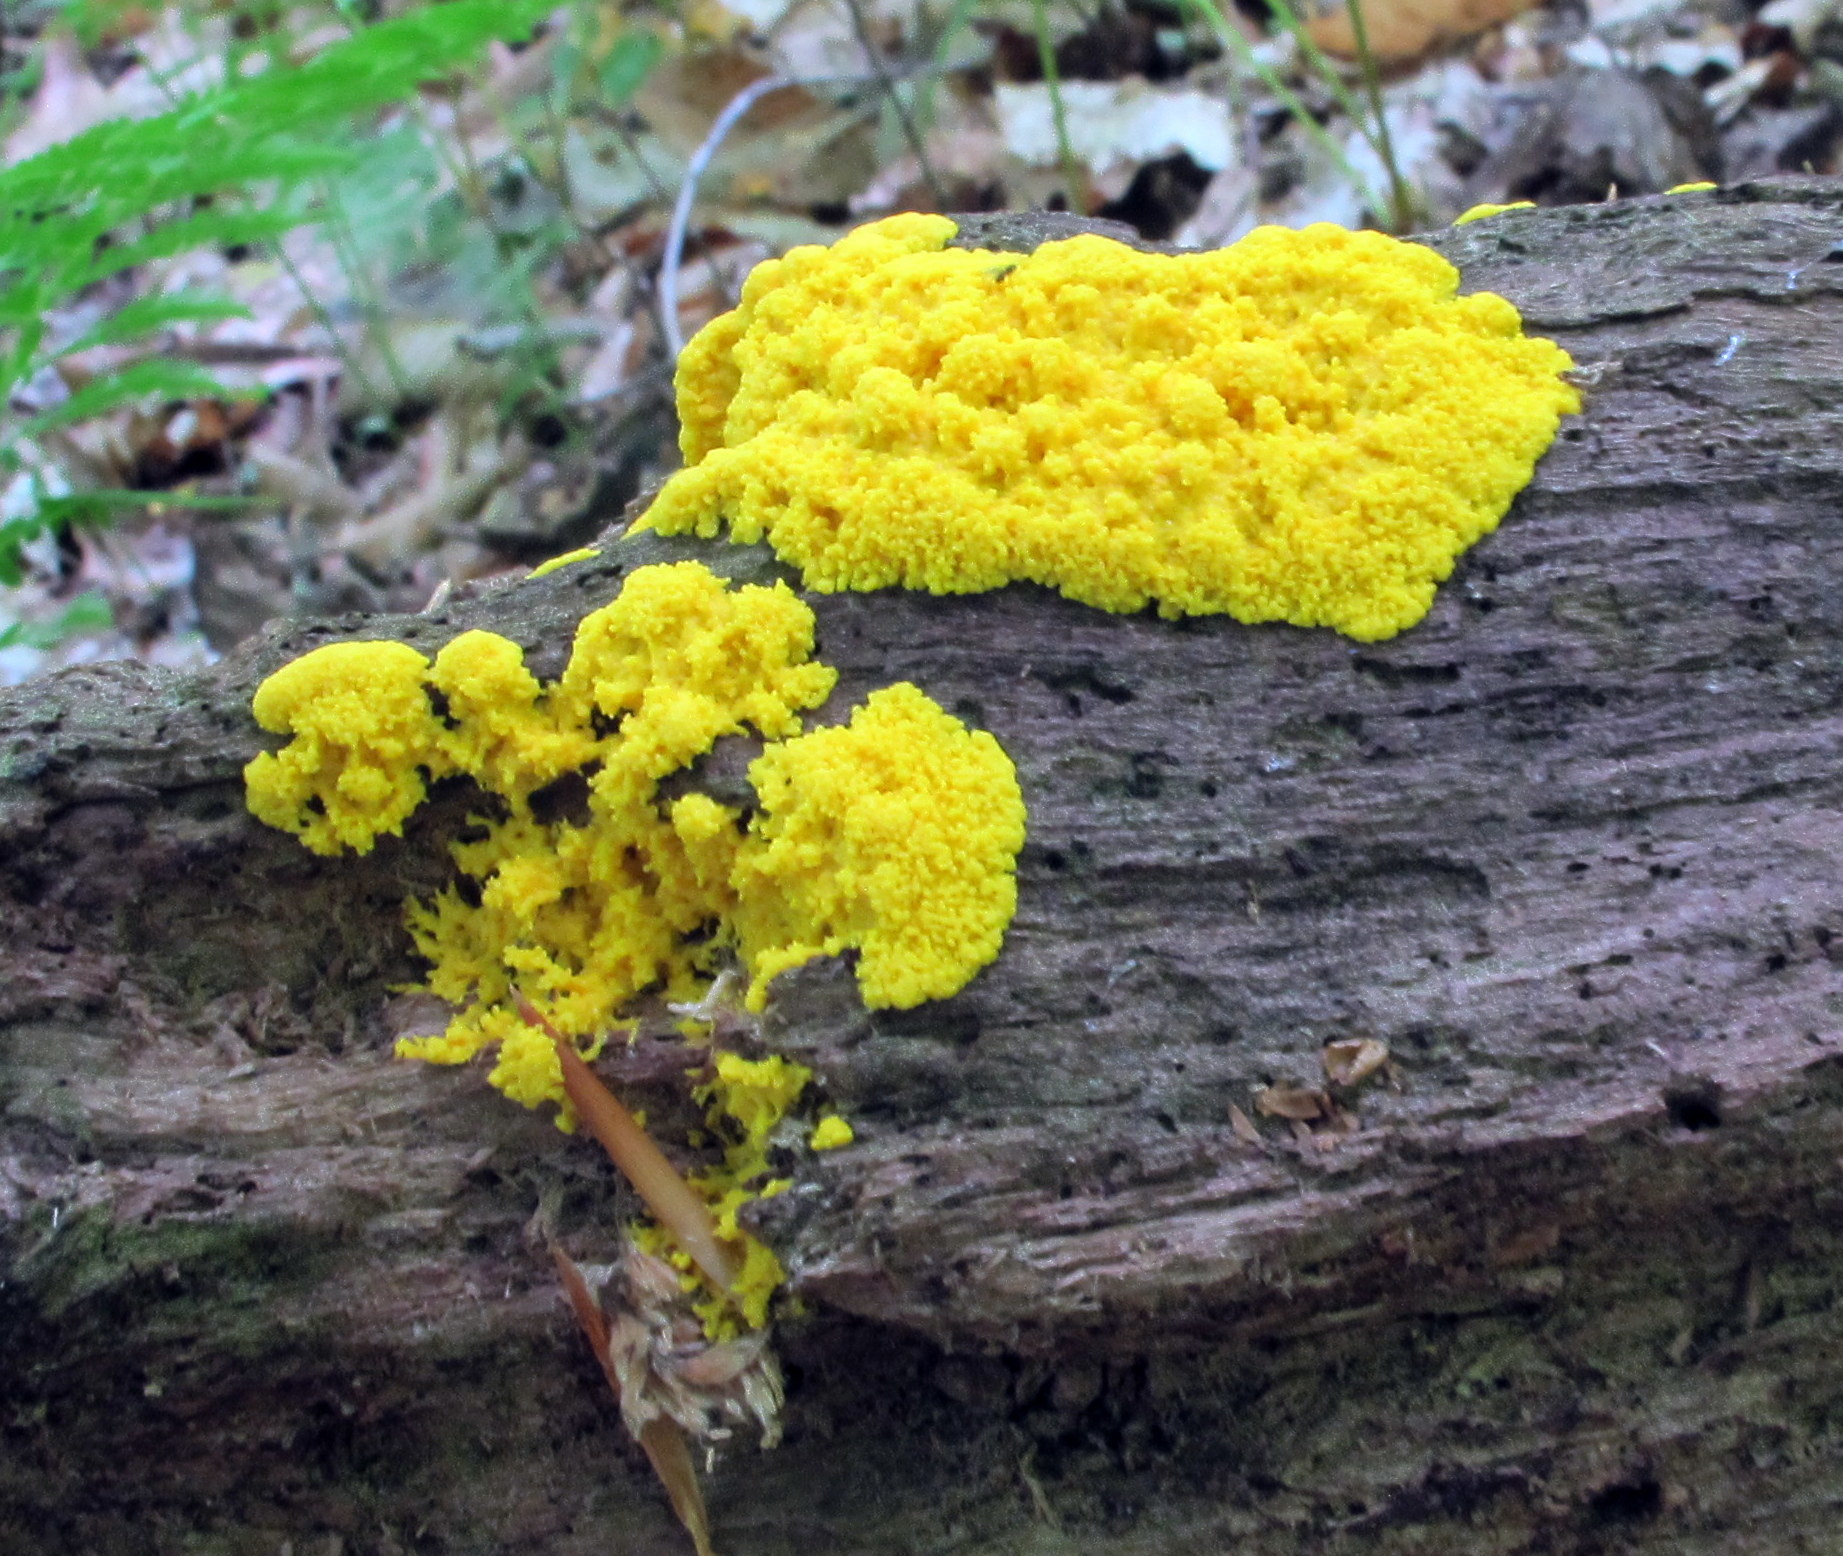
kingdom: Protozoa
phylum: Mycetozoa
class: Myxomycetes
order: Physarales
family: Physaraceae
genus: Fuligo
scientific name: Fuligo septica
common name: Dog vomit slime mold
